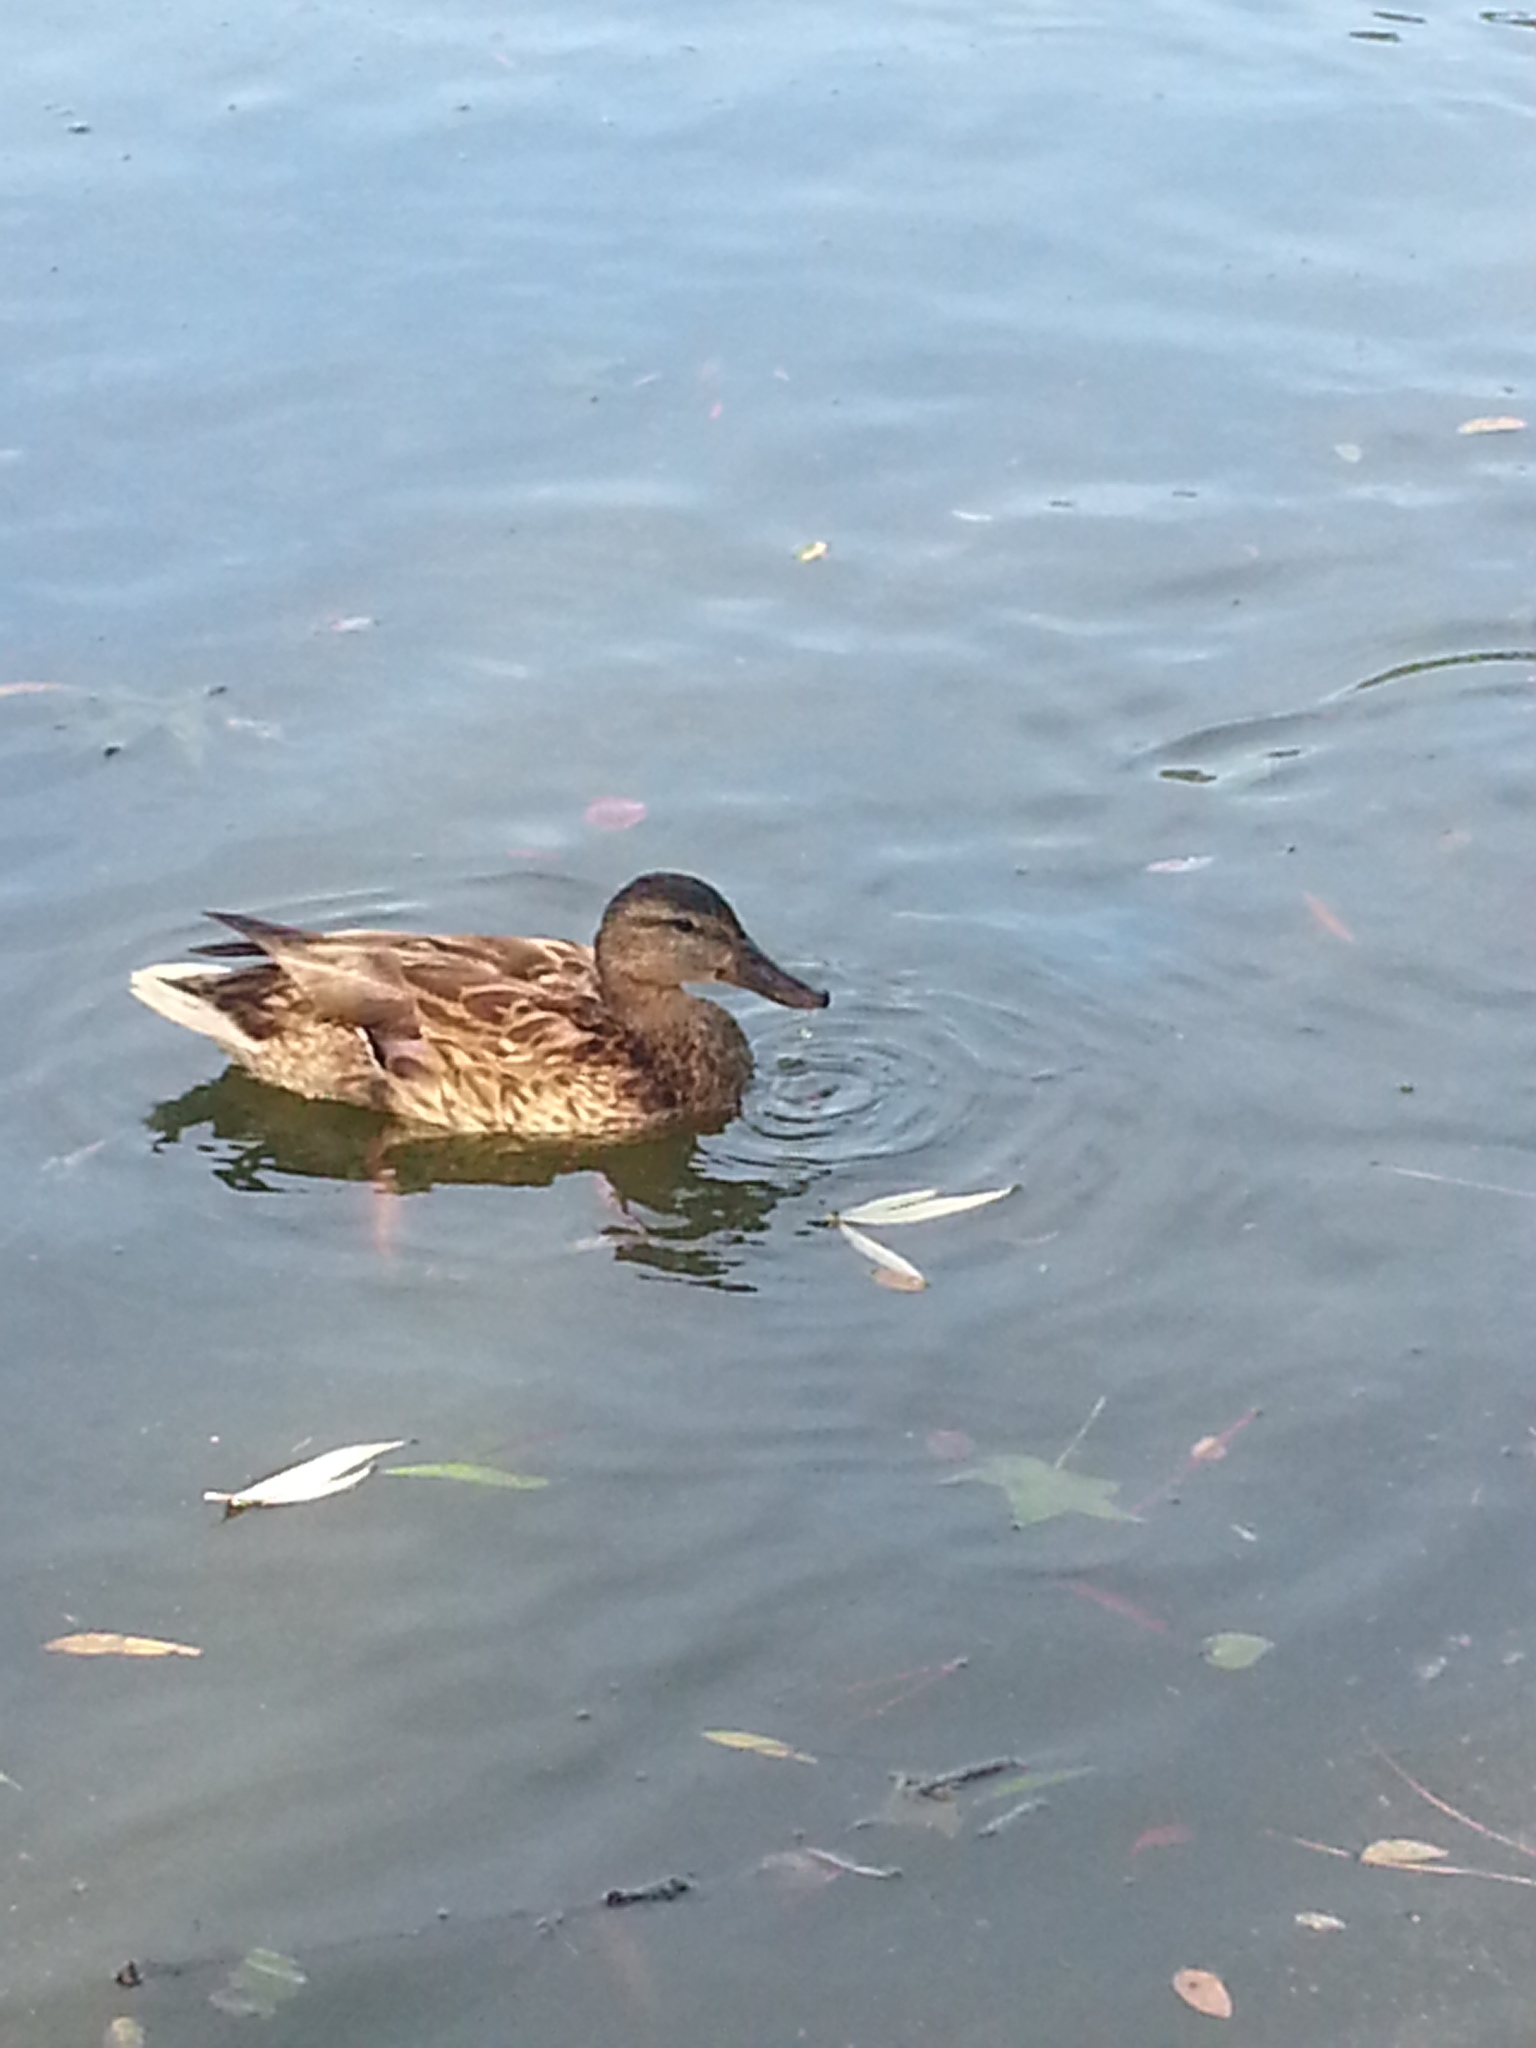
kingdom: Animalia
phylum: Chordata
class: Aves
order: Anseriformes
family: Anatidae
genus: Anas
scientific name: Anas platyrhynchos
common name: Mallard
